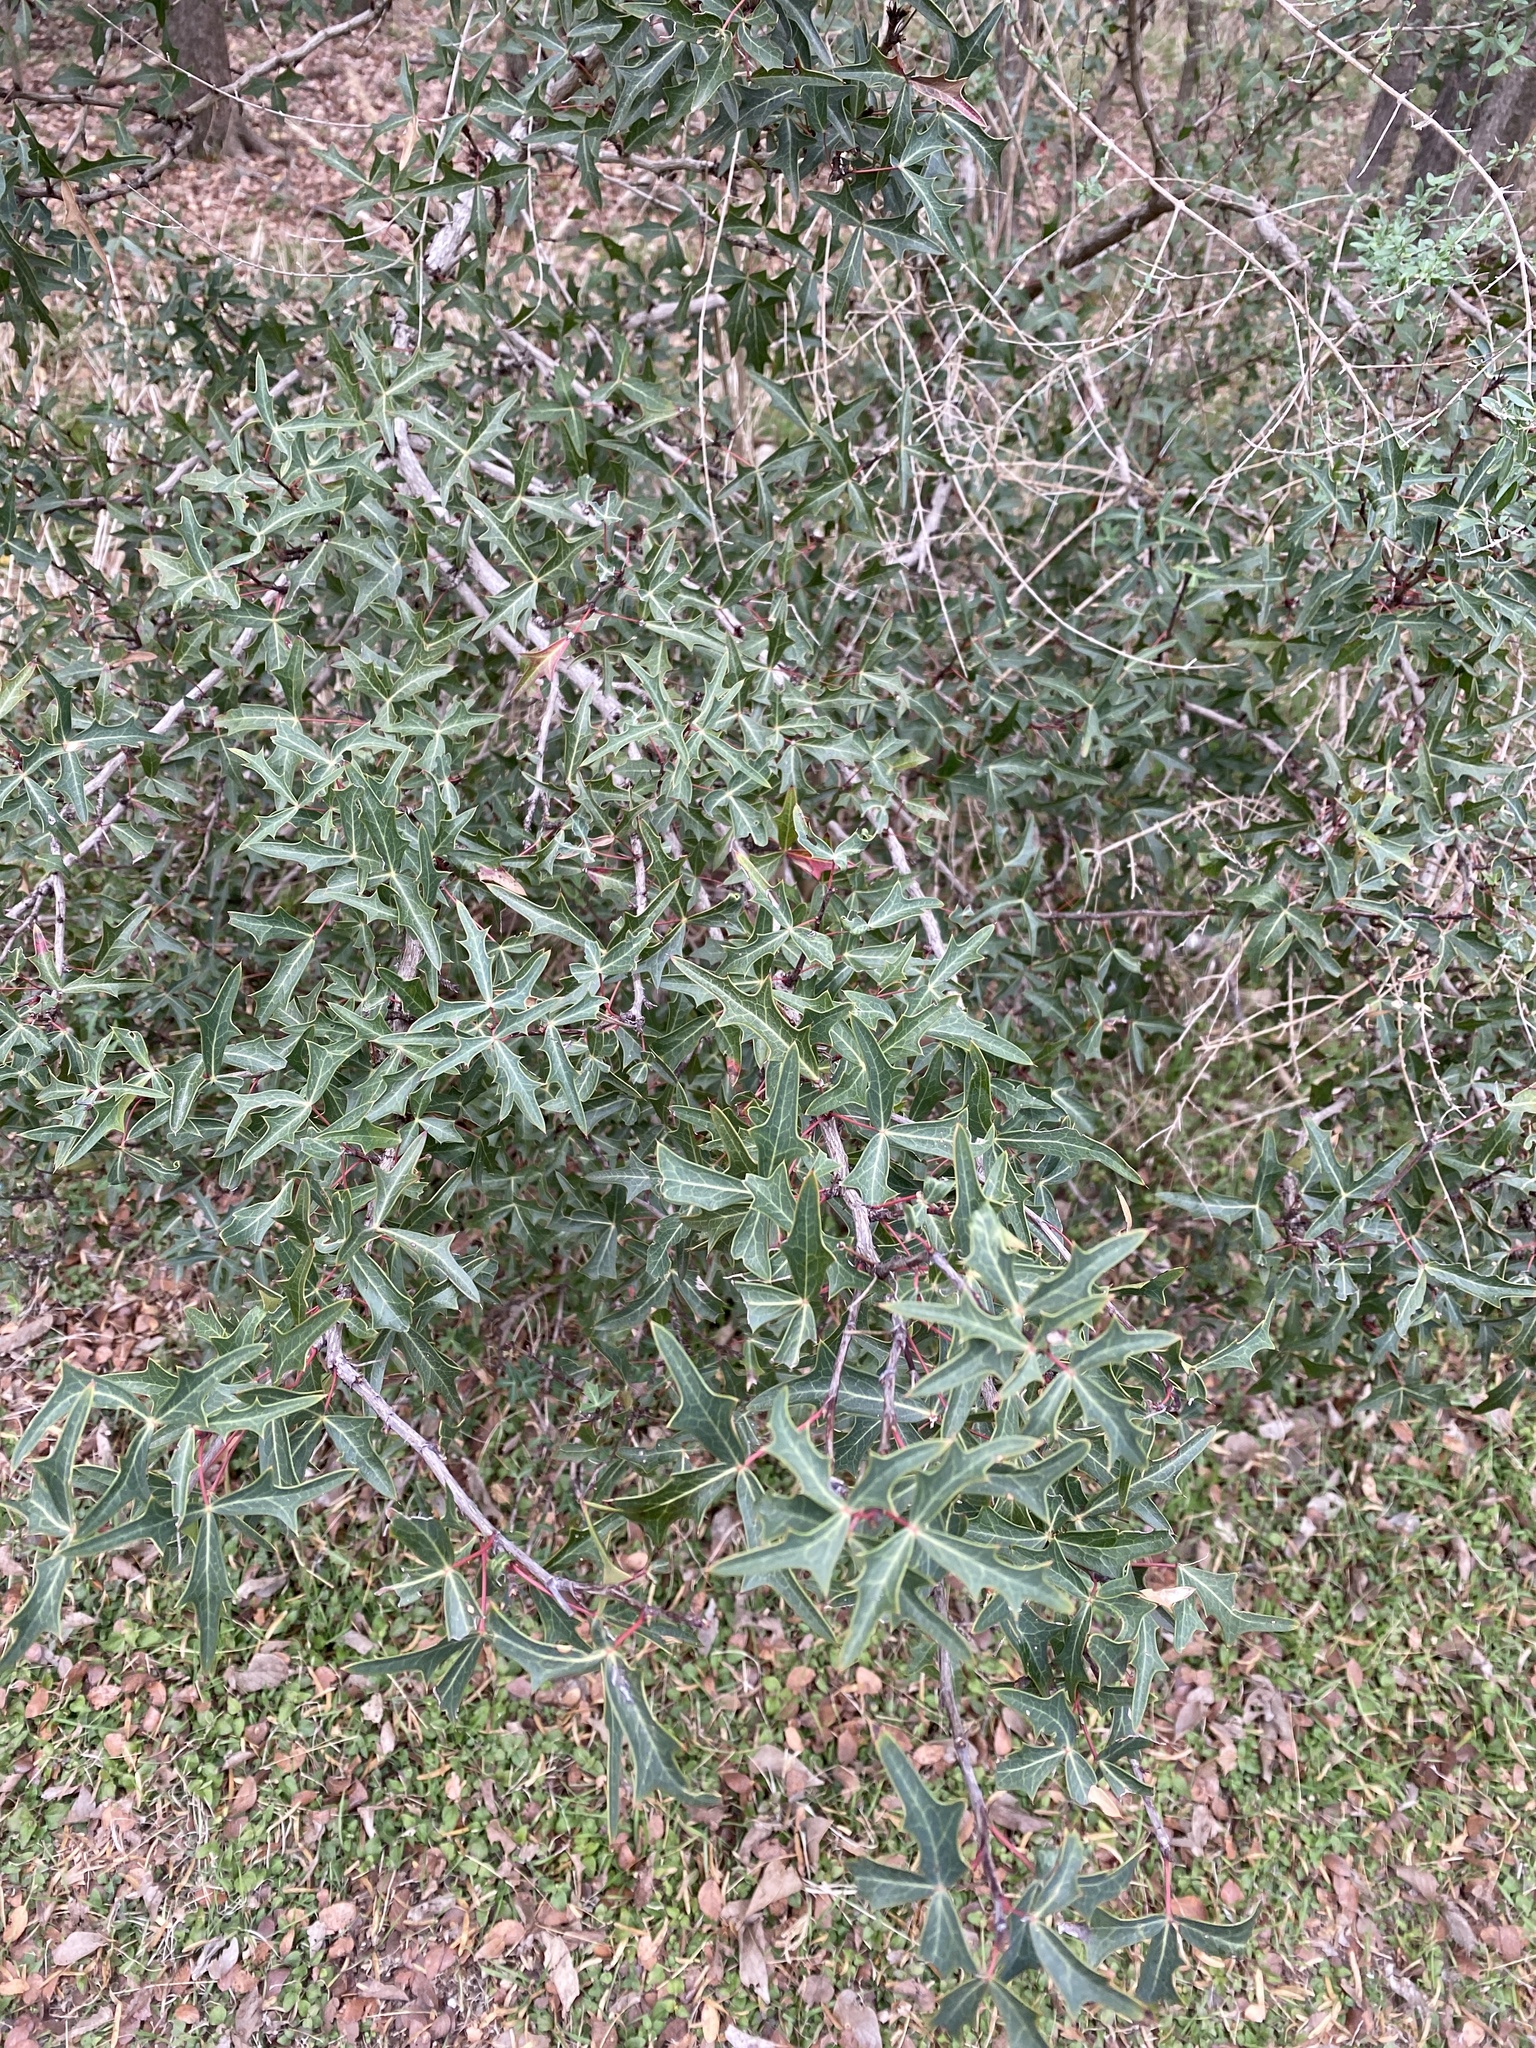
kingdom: Plantae
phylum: Tracheophyta
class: Magnoliopsida
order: Ranunculales
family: Berberidaceae
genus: Alloberberis
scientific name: Alloberberis trifoliolata
